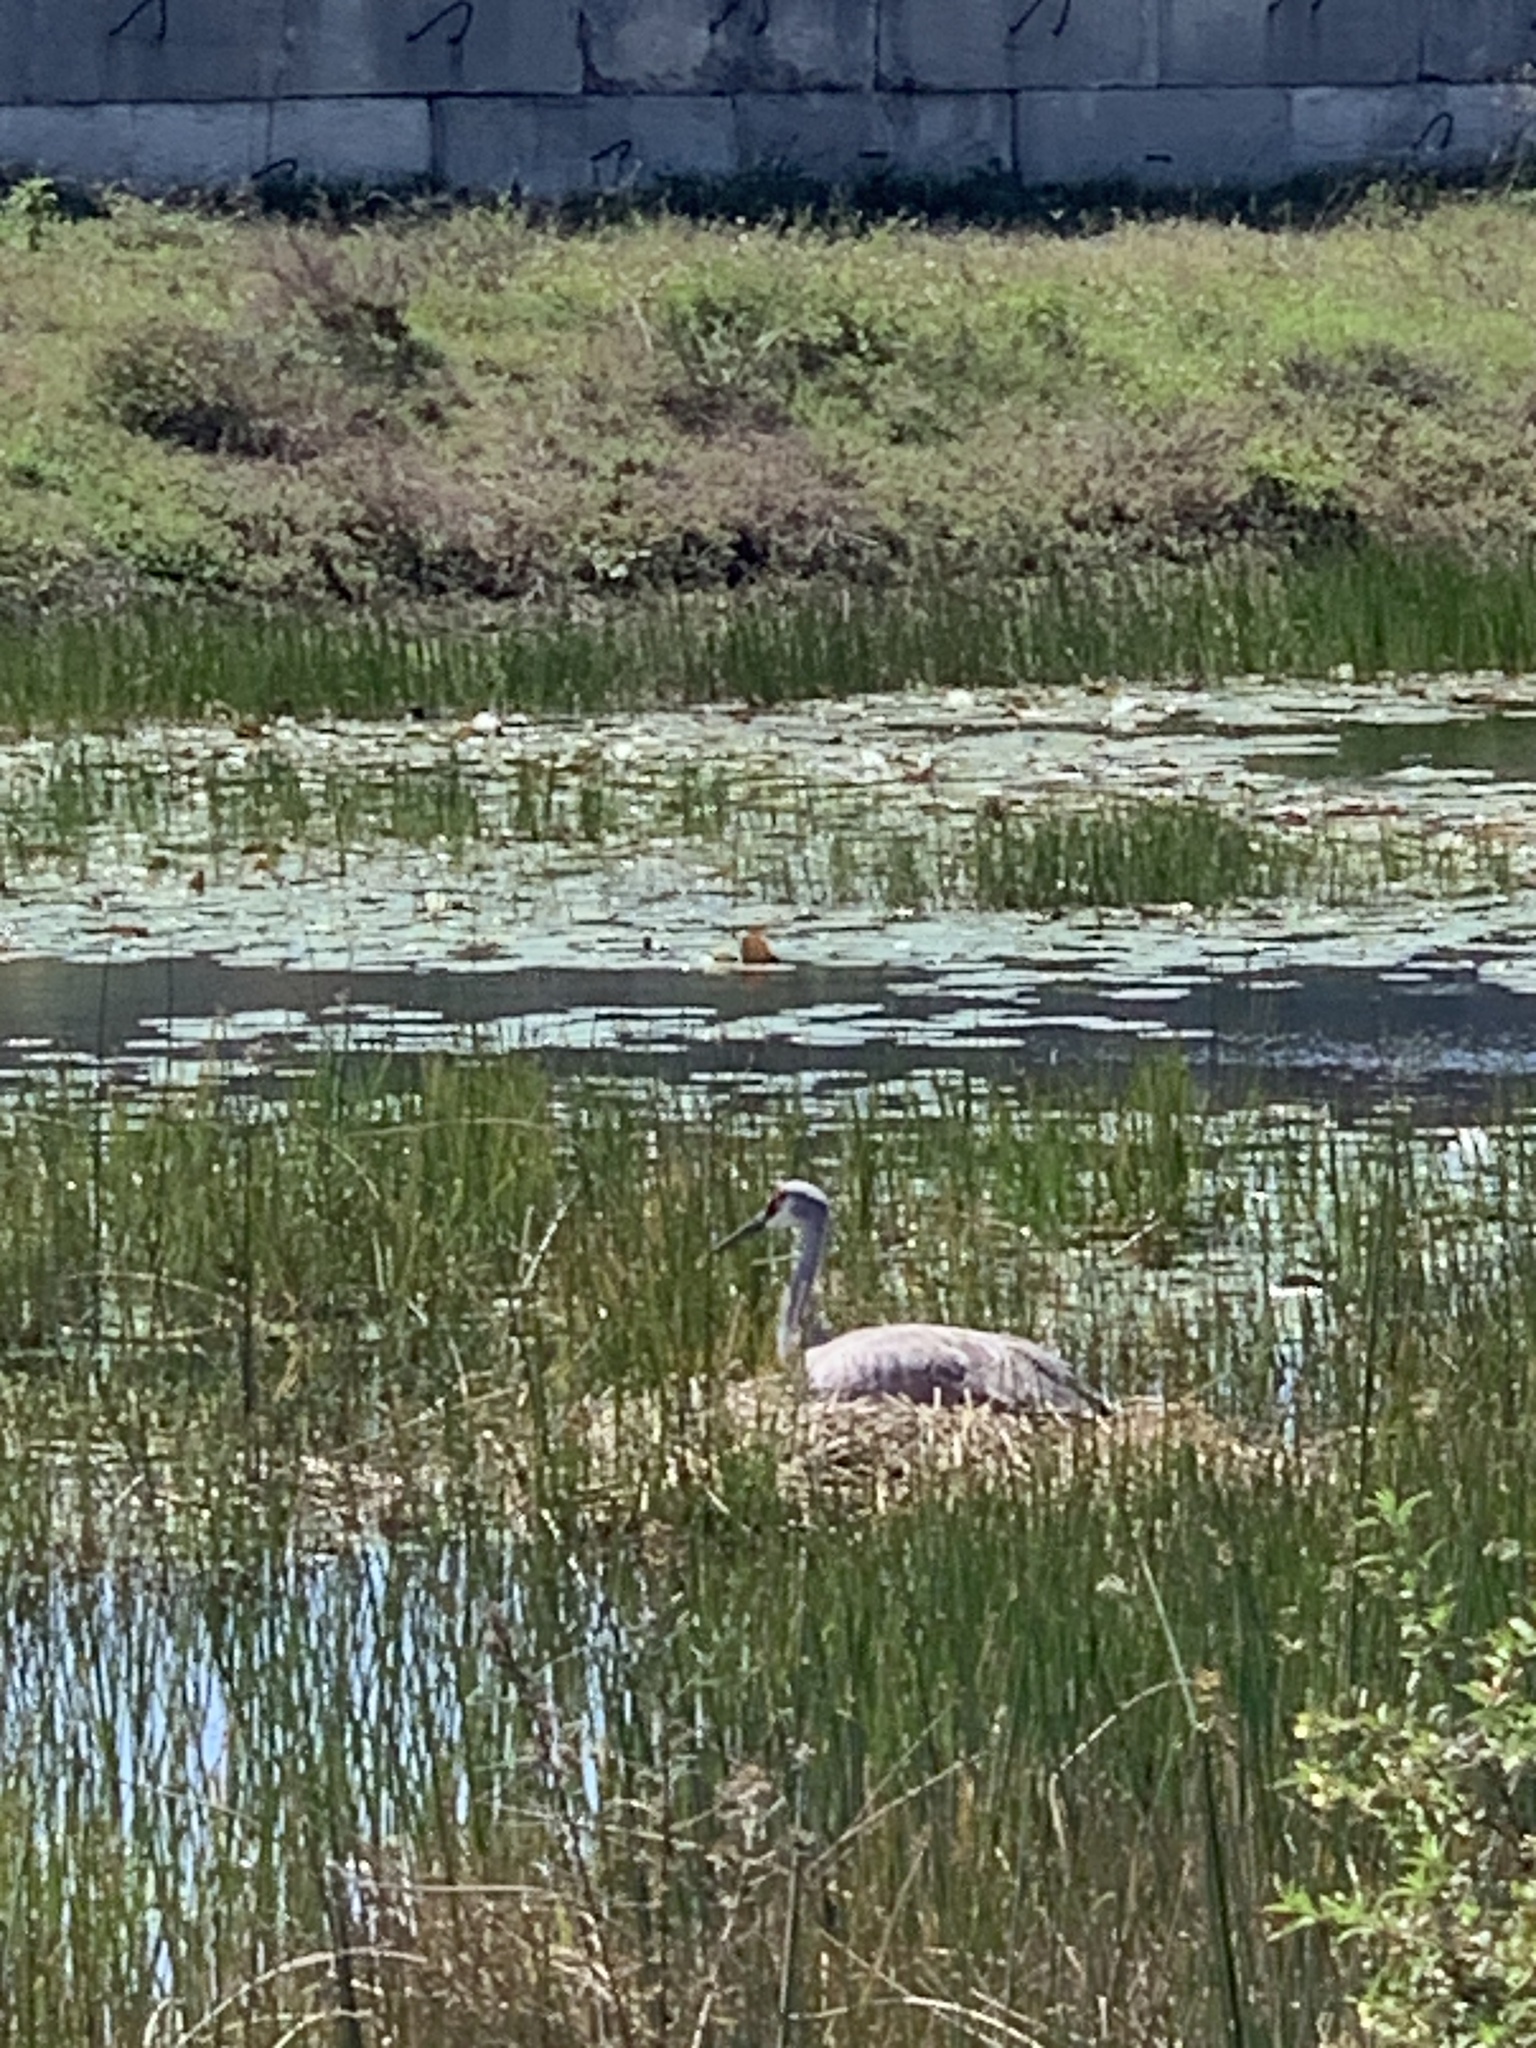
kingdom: Animalia
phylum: Chordata
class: Aves
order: Gruiformes
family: Gruidae
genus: Grus
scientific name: Grus canadensis
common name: Sandhill crane
